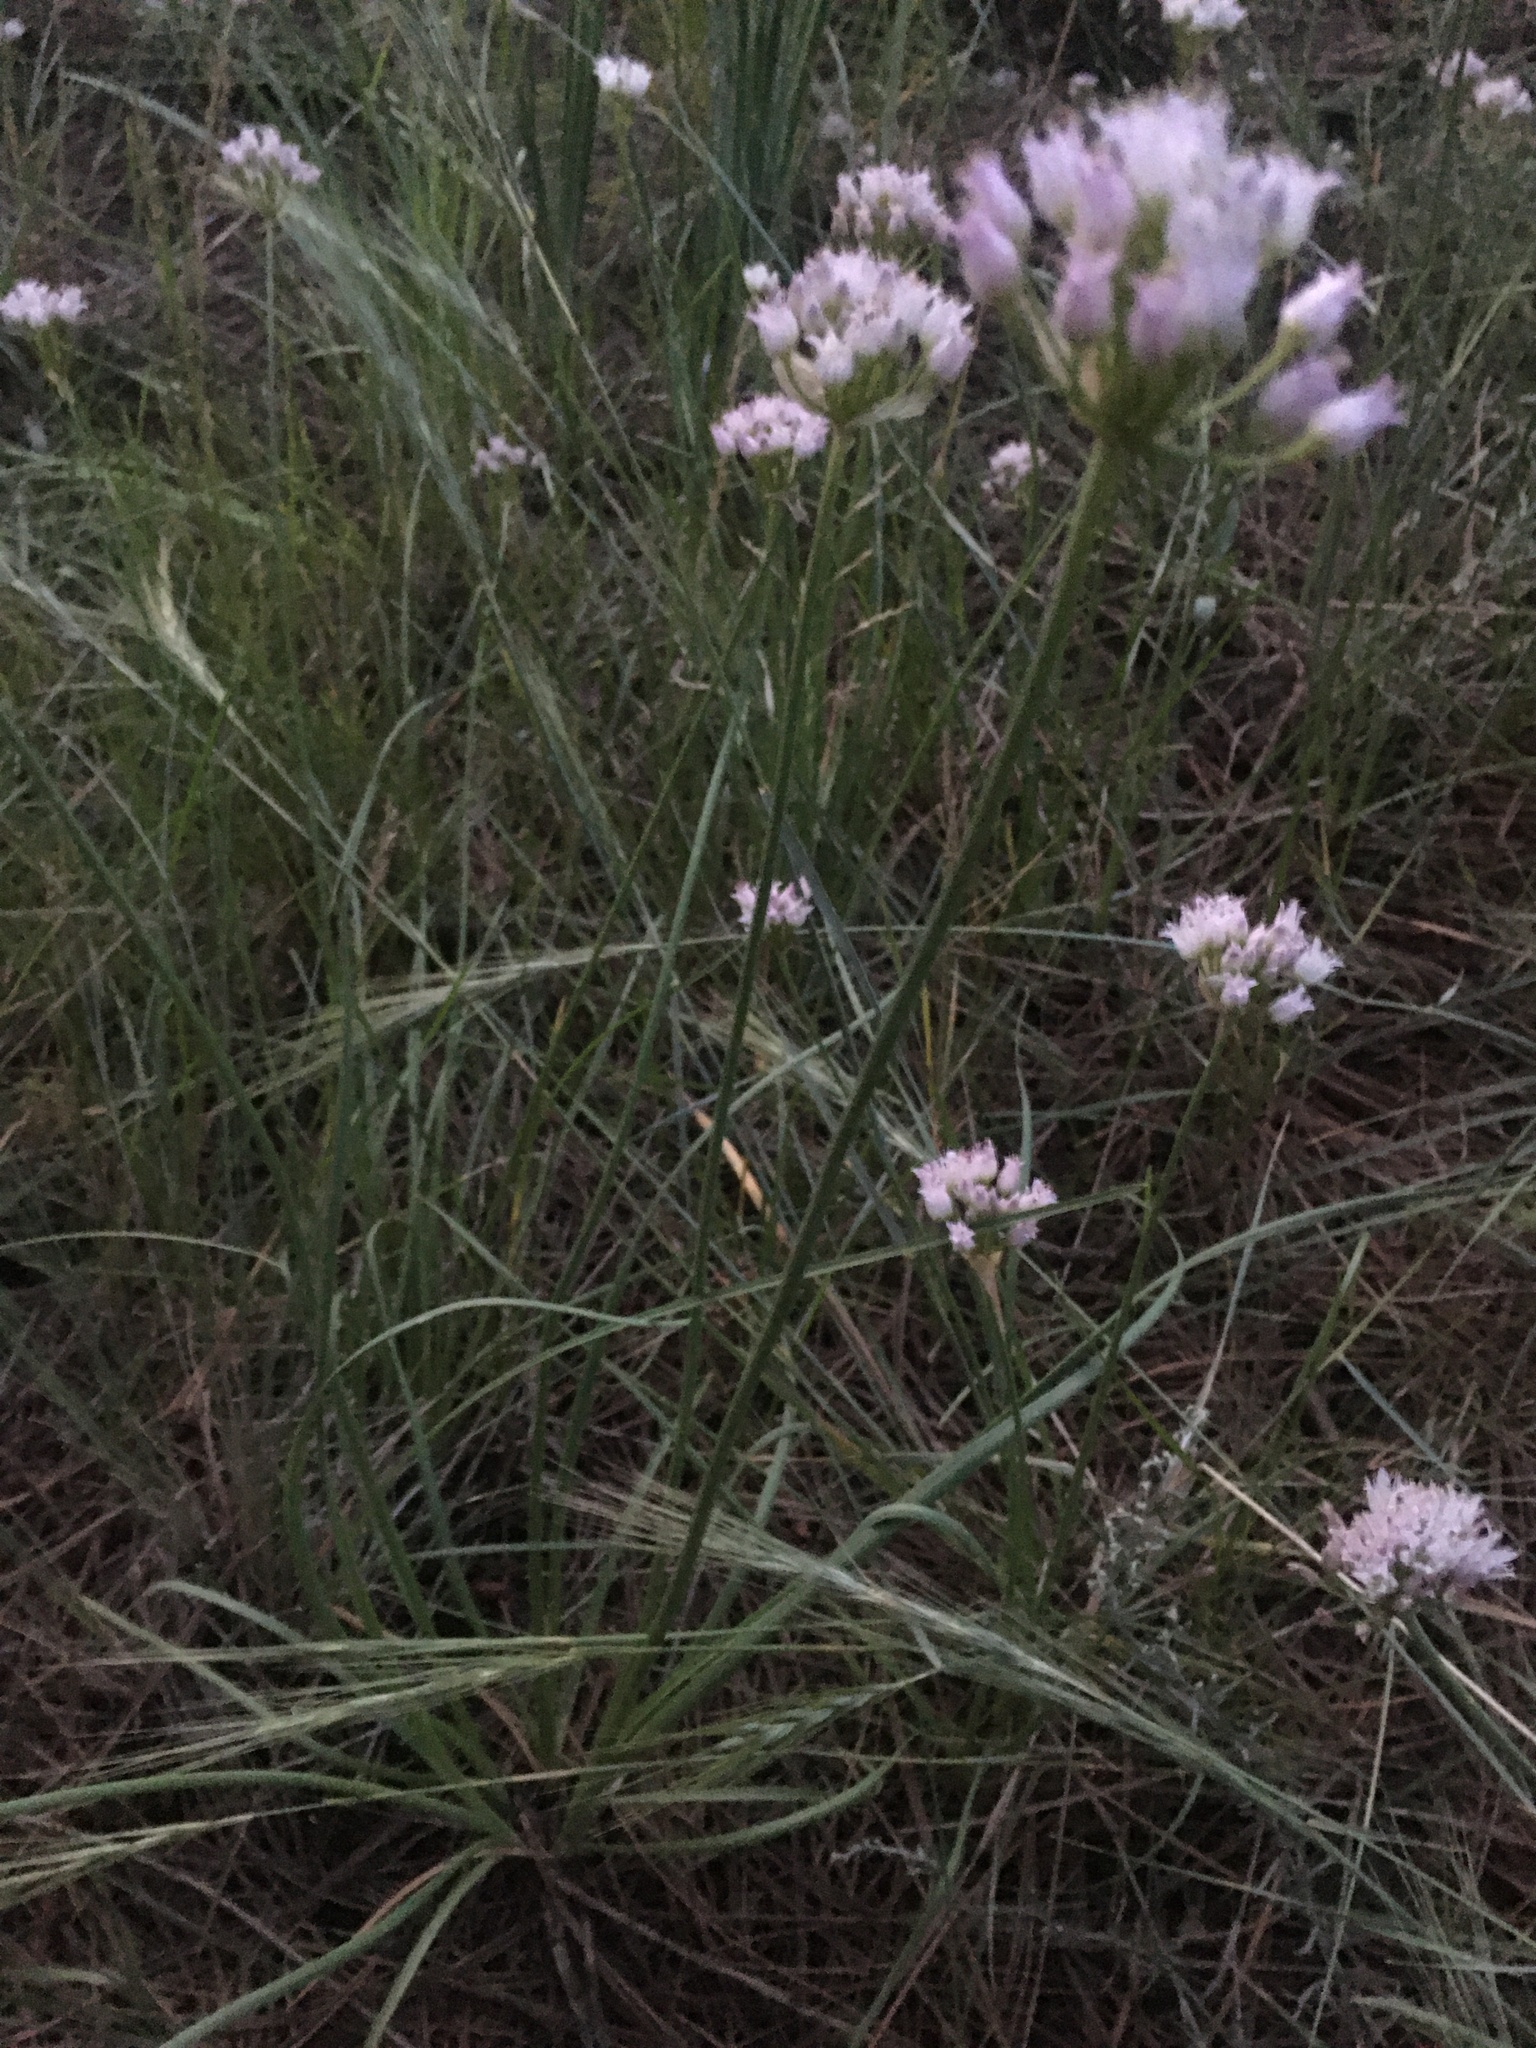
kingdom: Plantae
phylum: Tracheophyta
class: Liliopsida
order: Asparagales
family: Amaryllidaceae
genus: Allium
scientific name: Allium geyeri
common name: Geyer's onion
